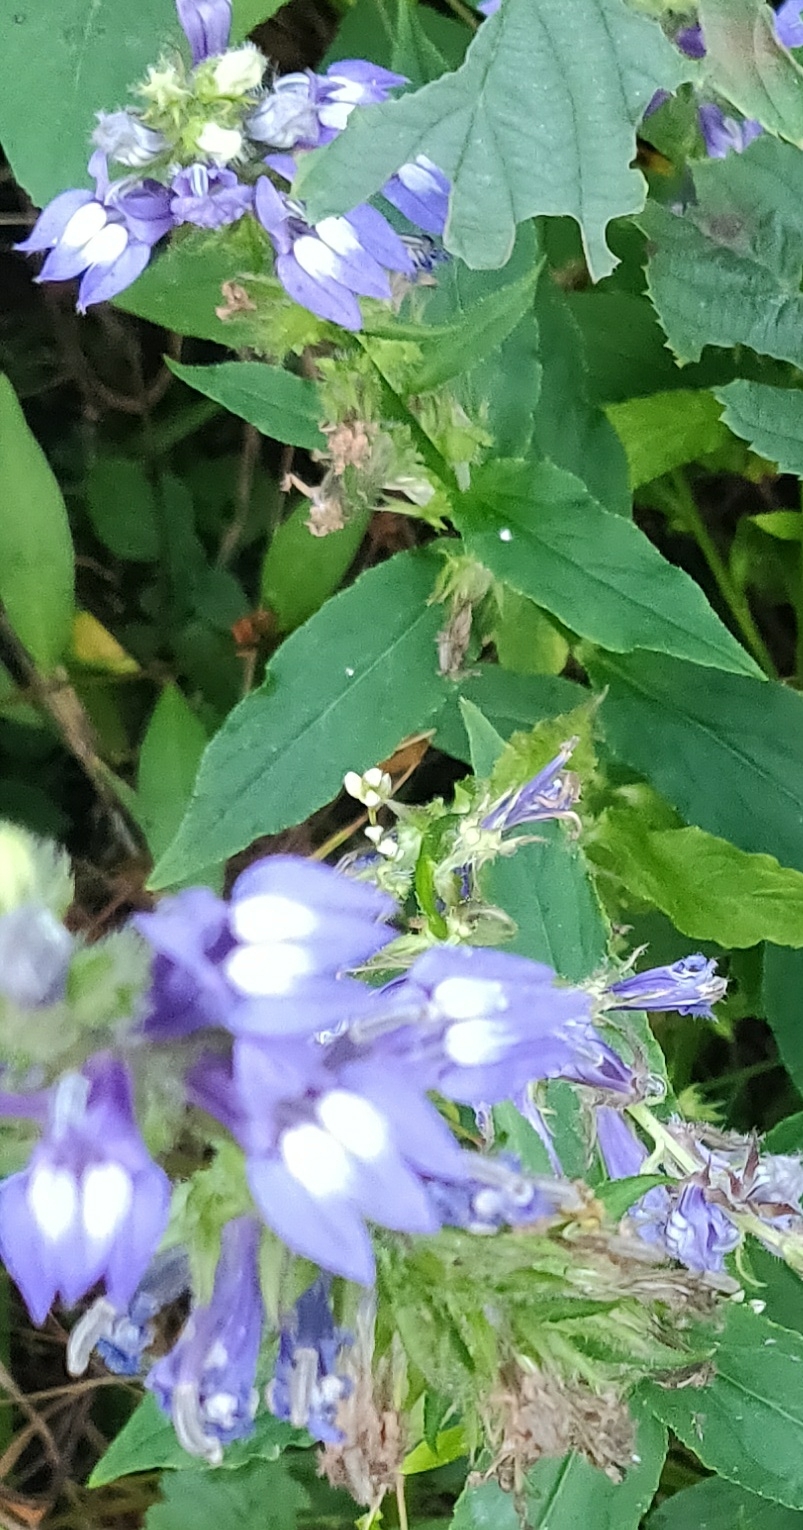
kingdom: Plantae
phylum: Tracheophyta
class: Magnoliopsida
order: Asterales
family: Campanulaceae
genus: Lobelia
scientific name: Lobelia siphilitica
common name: Great lobelia
